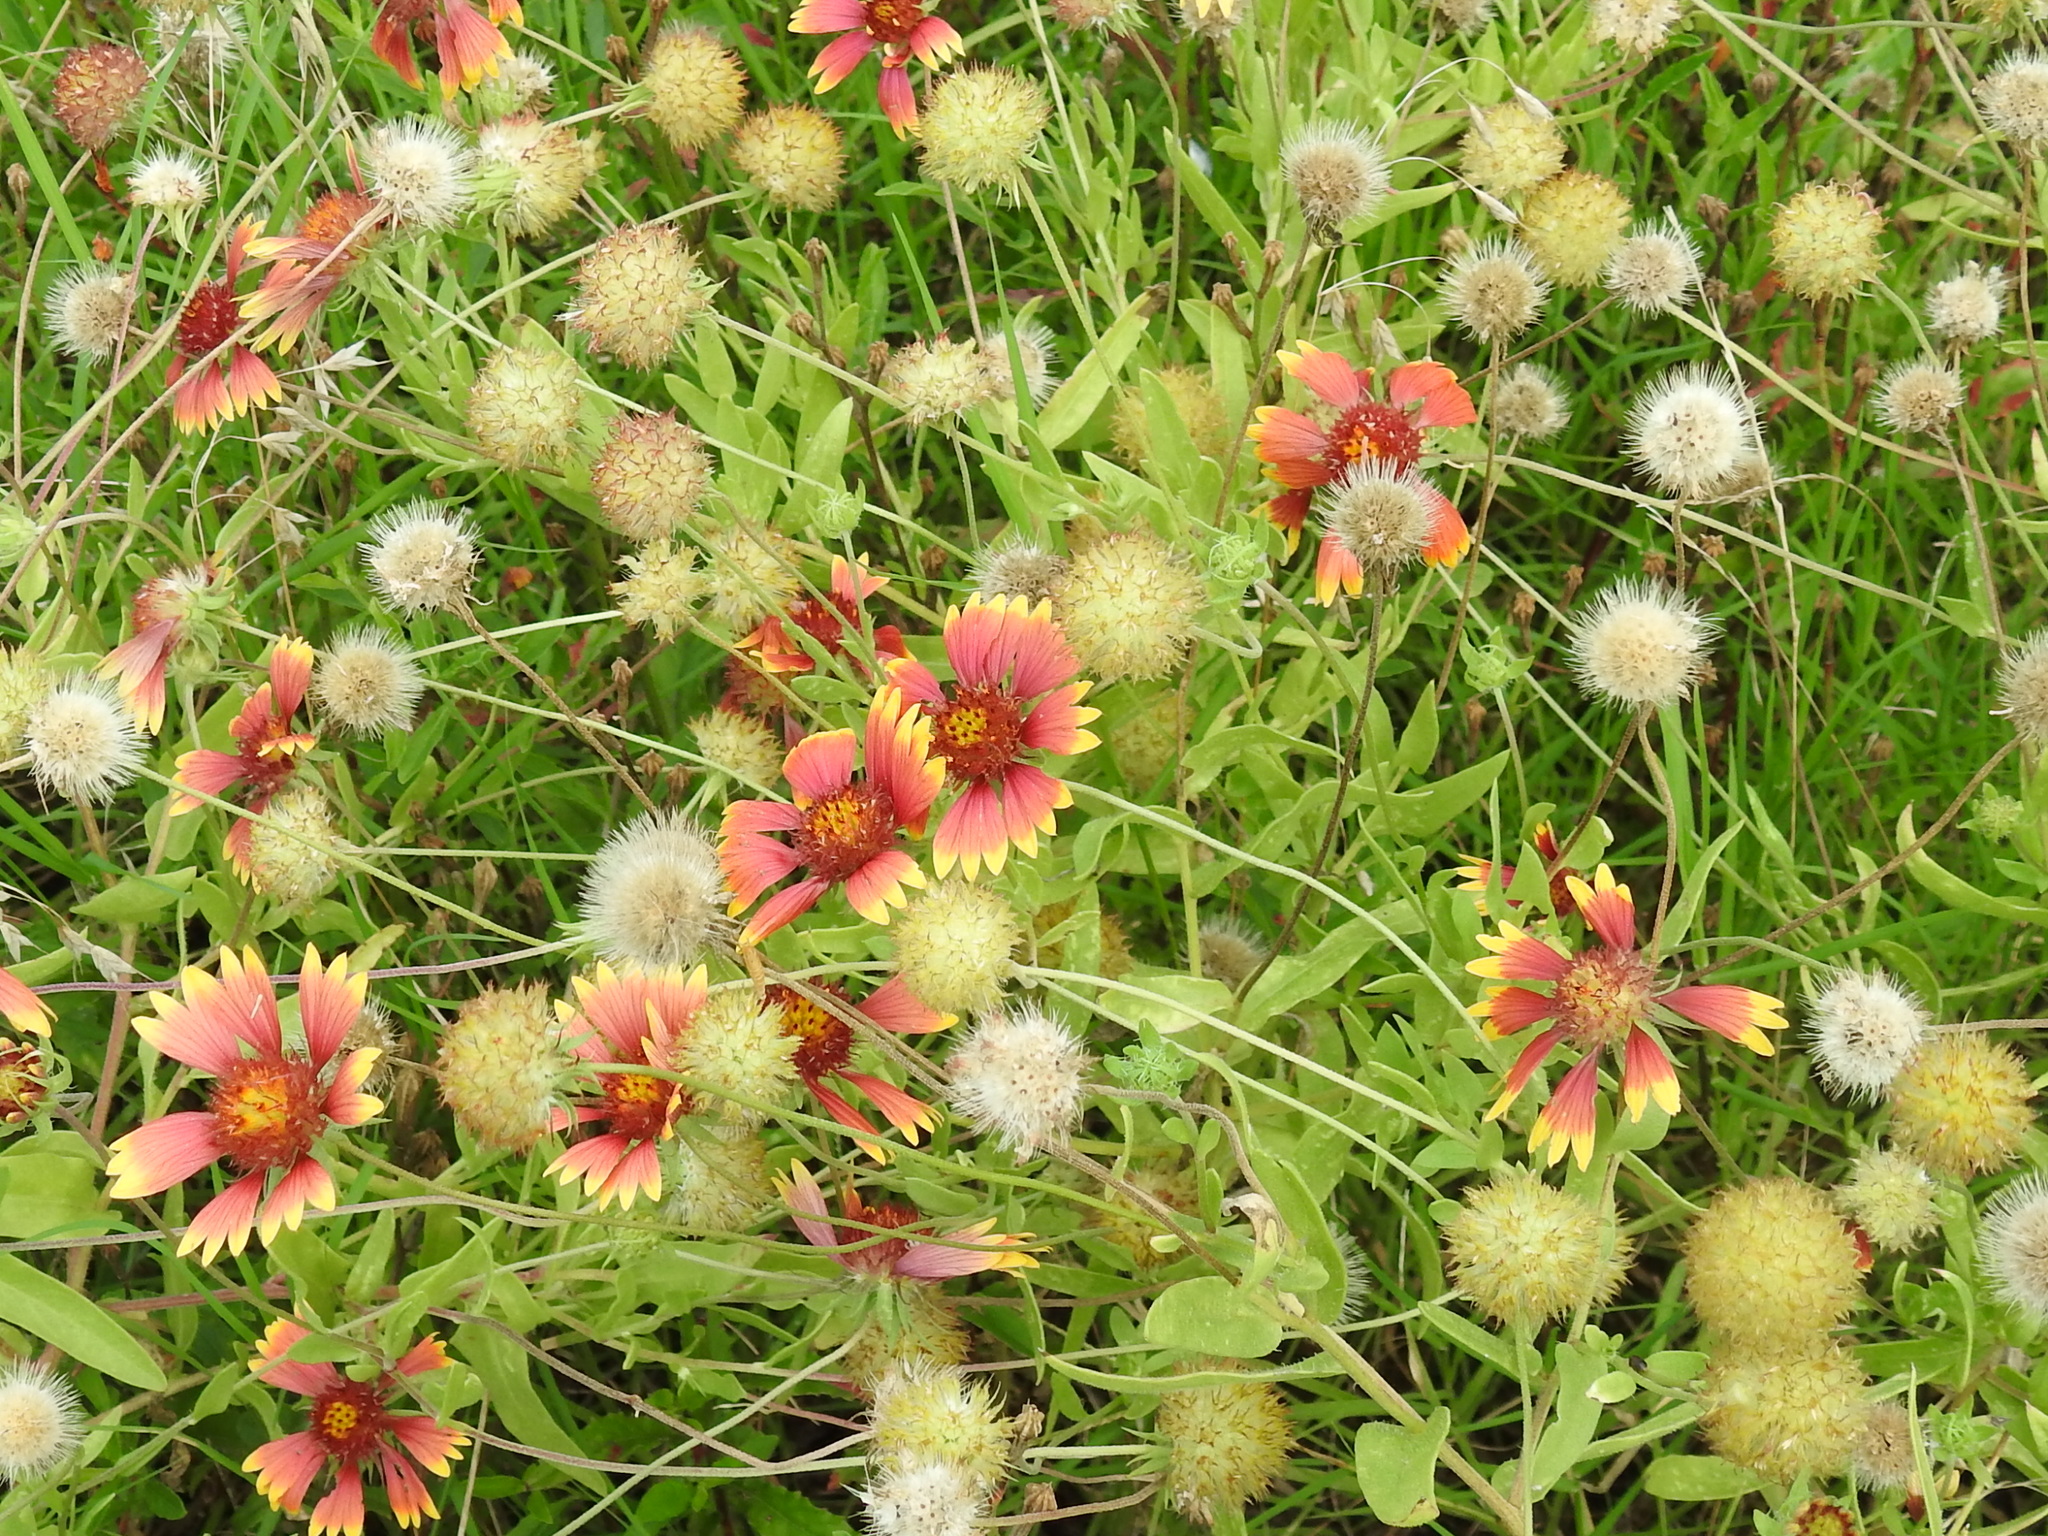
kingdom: Plantae
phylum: Tracheophyta
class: Magnoliopsida
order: Asterales
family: Asteraceae
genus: Gaillardia
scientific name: Gaillardia pulchella
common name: Firewheel
